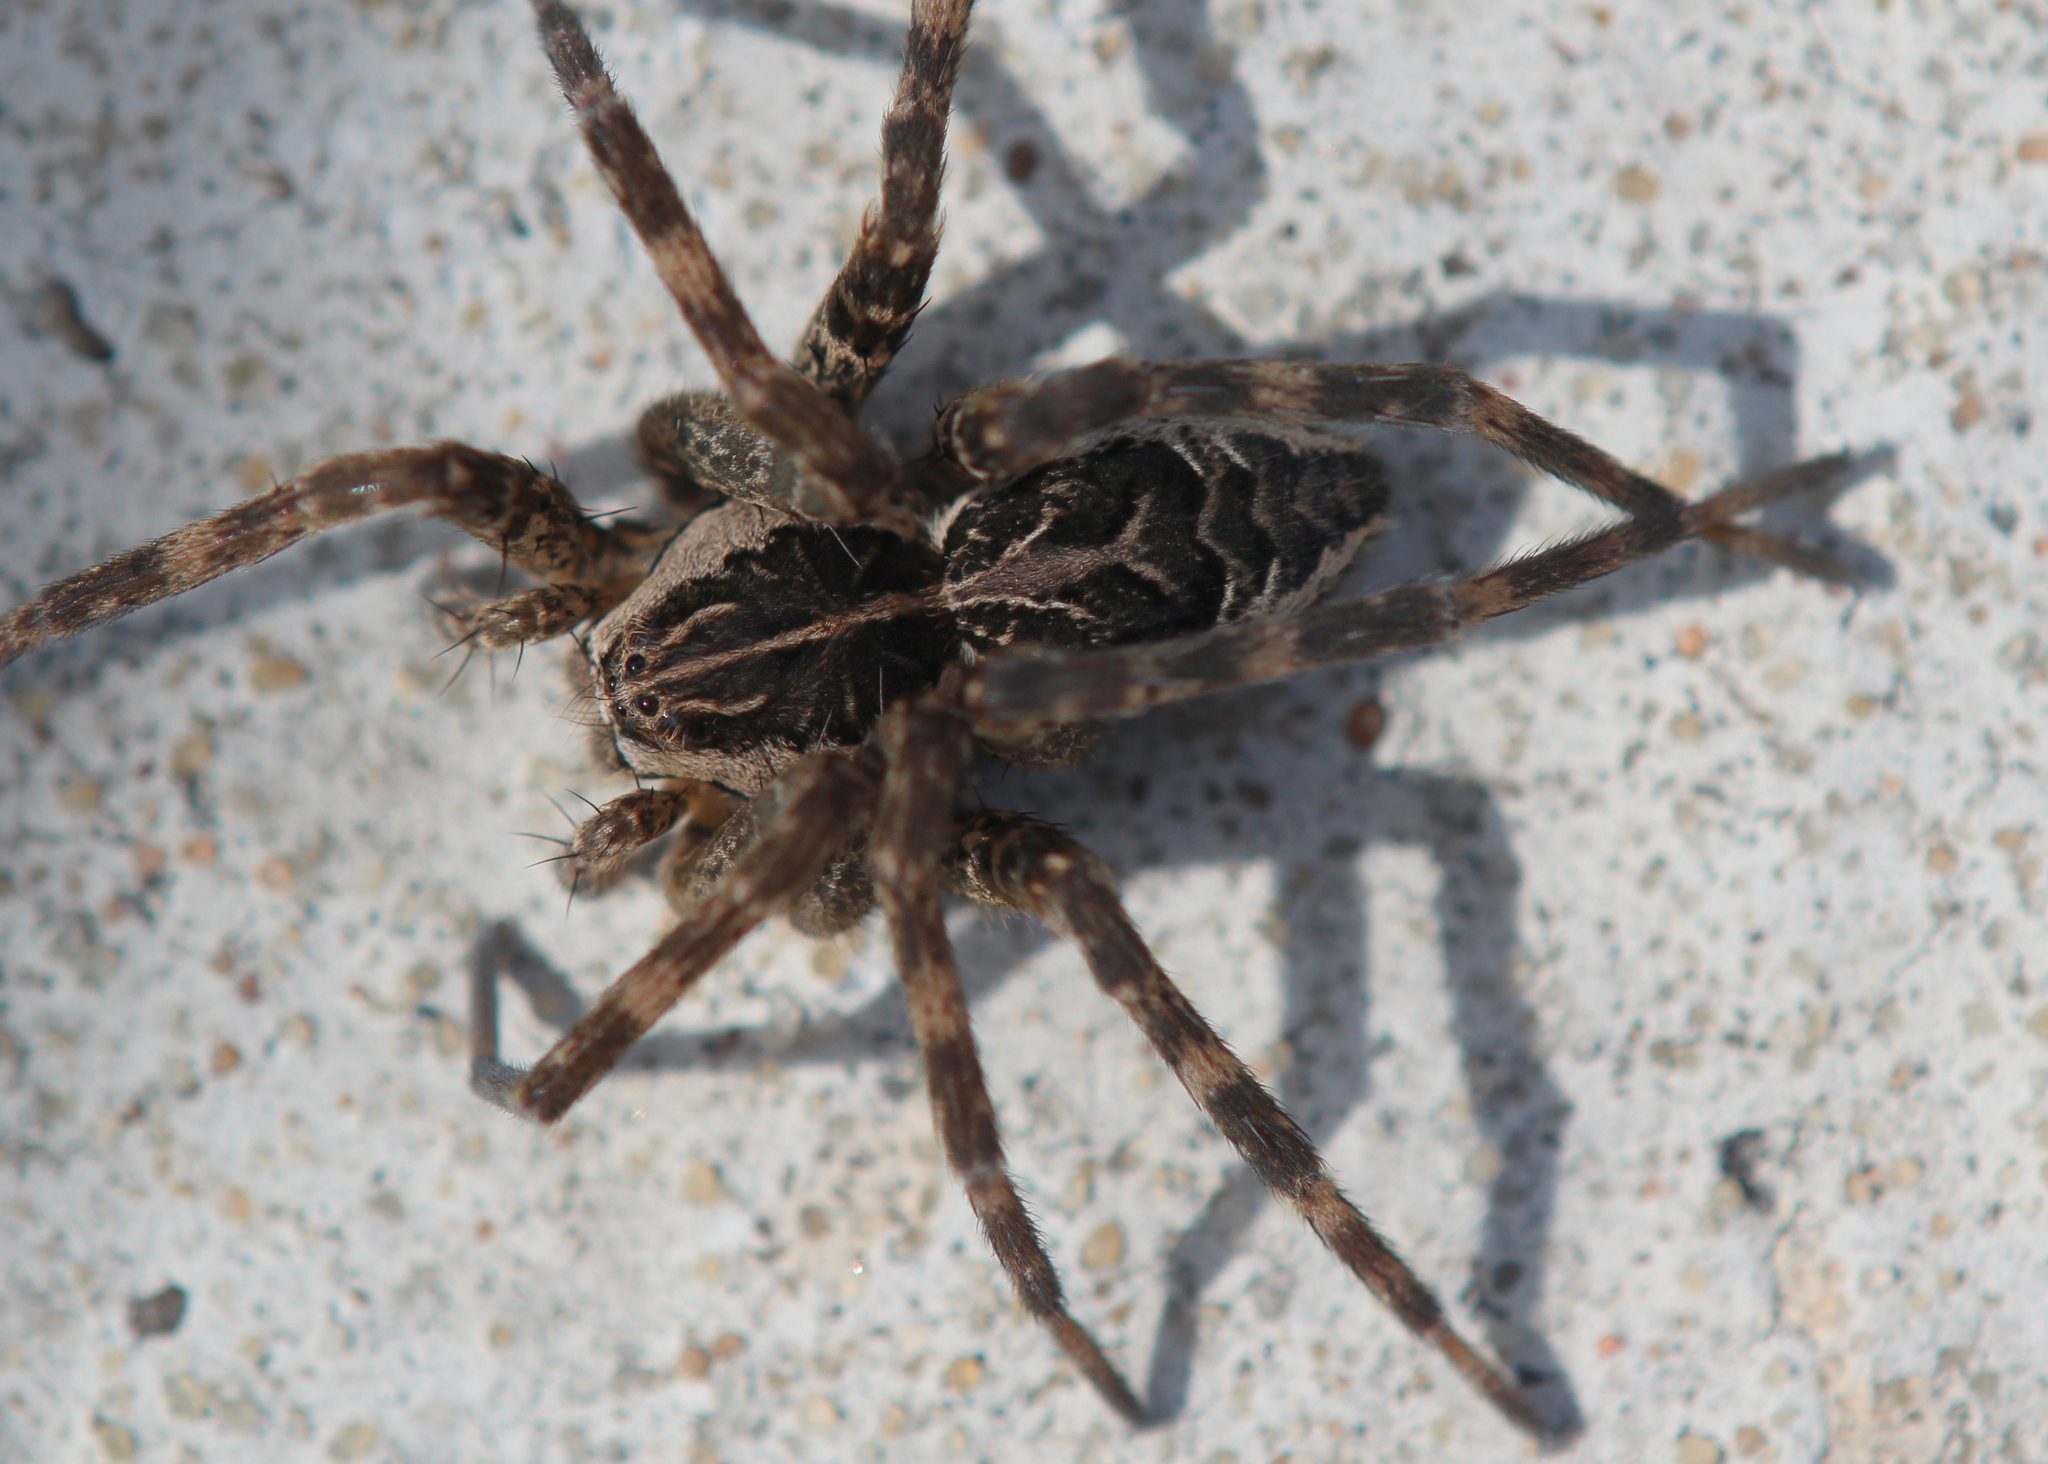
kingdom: Animalia
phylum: Arthropoda
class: Arachnida
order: Araneae
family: Pisauridae
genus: Dolomedes
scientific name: Dolomedes scriptus
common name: Striped fishing spider
